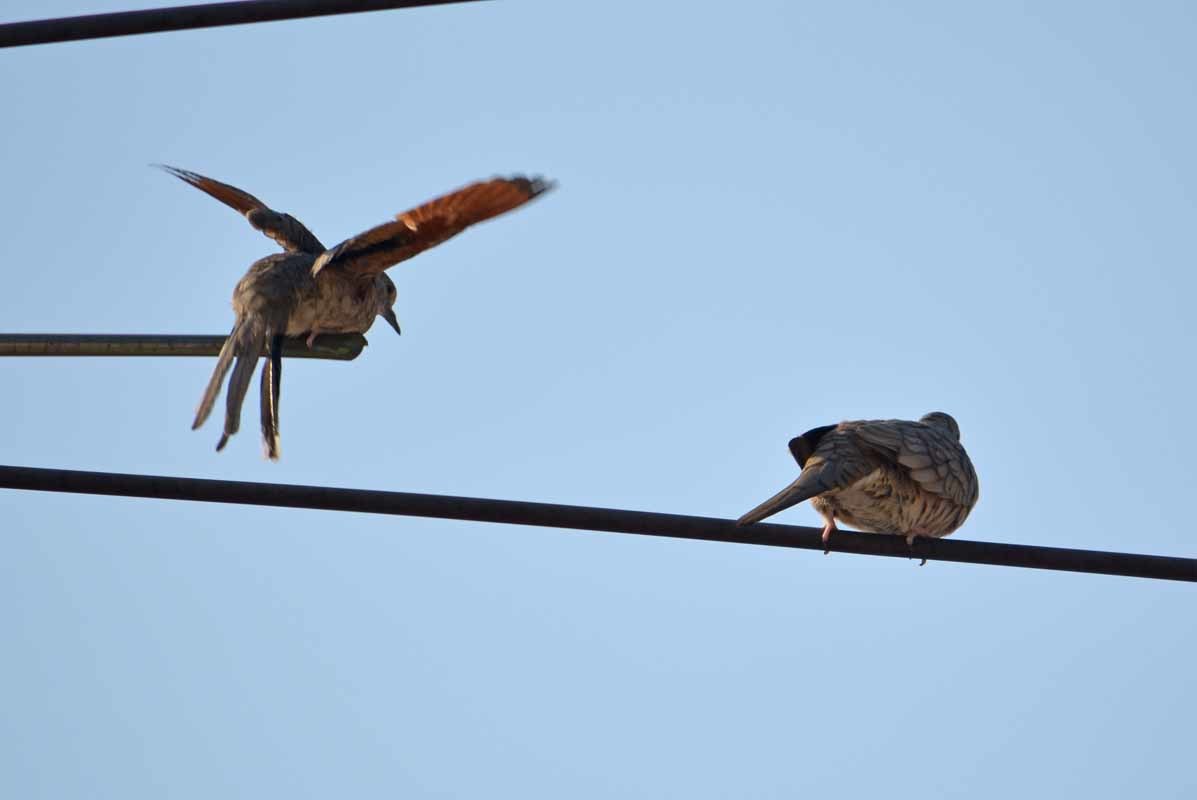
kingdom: Animalia
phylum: Chordata
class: Aves
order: Columbiformes
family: Columbidae
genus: Columbina
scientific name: Columbina inca
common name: Inca dove
